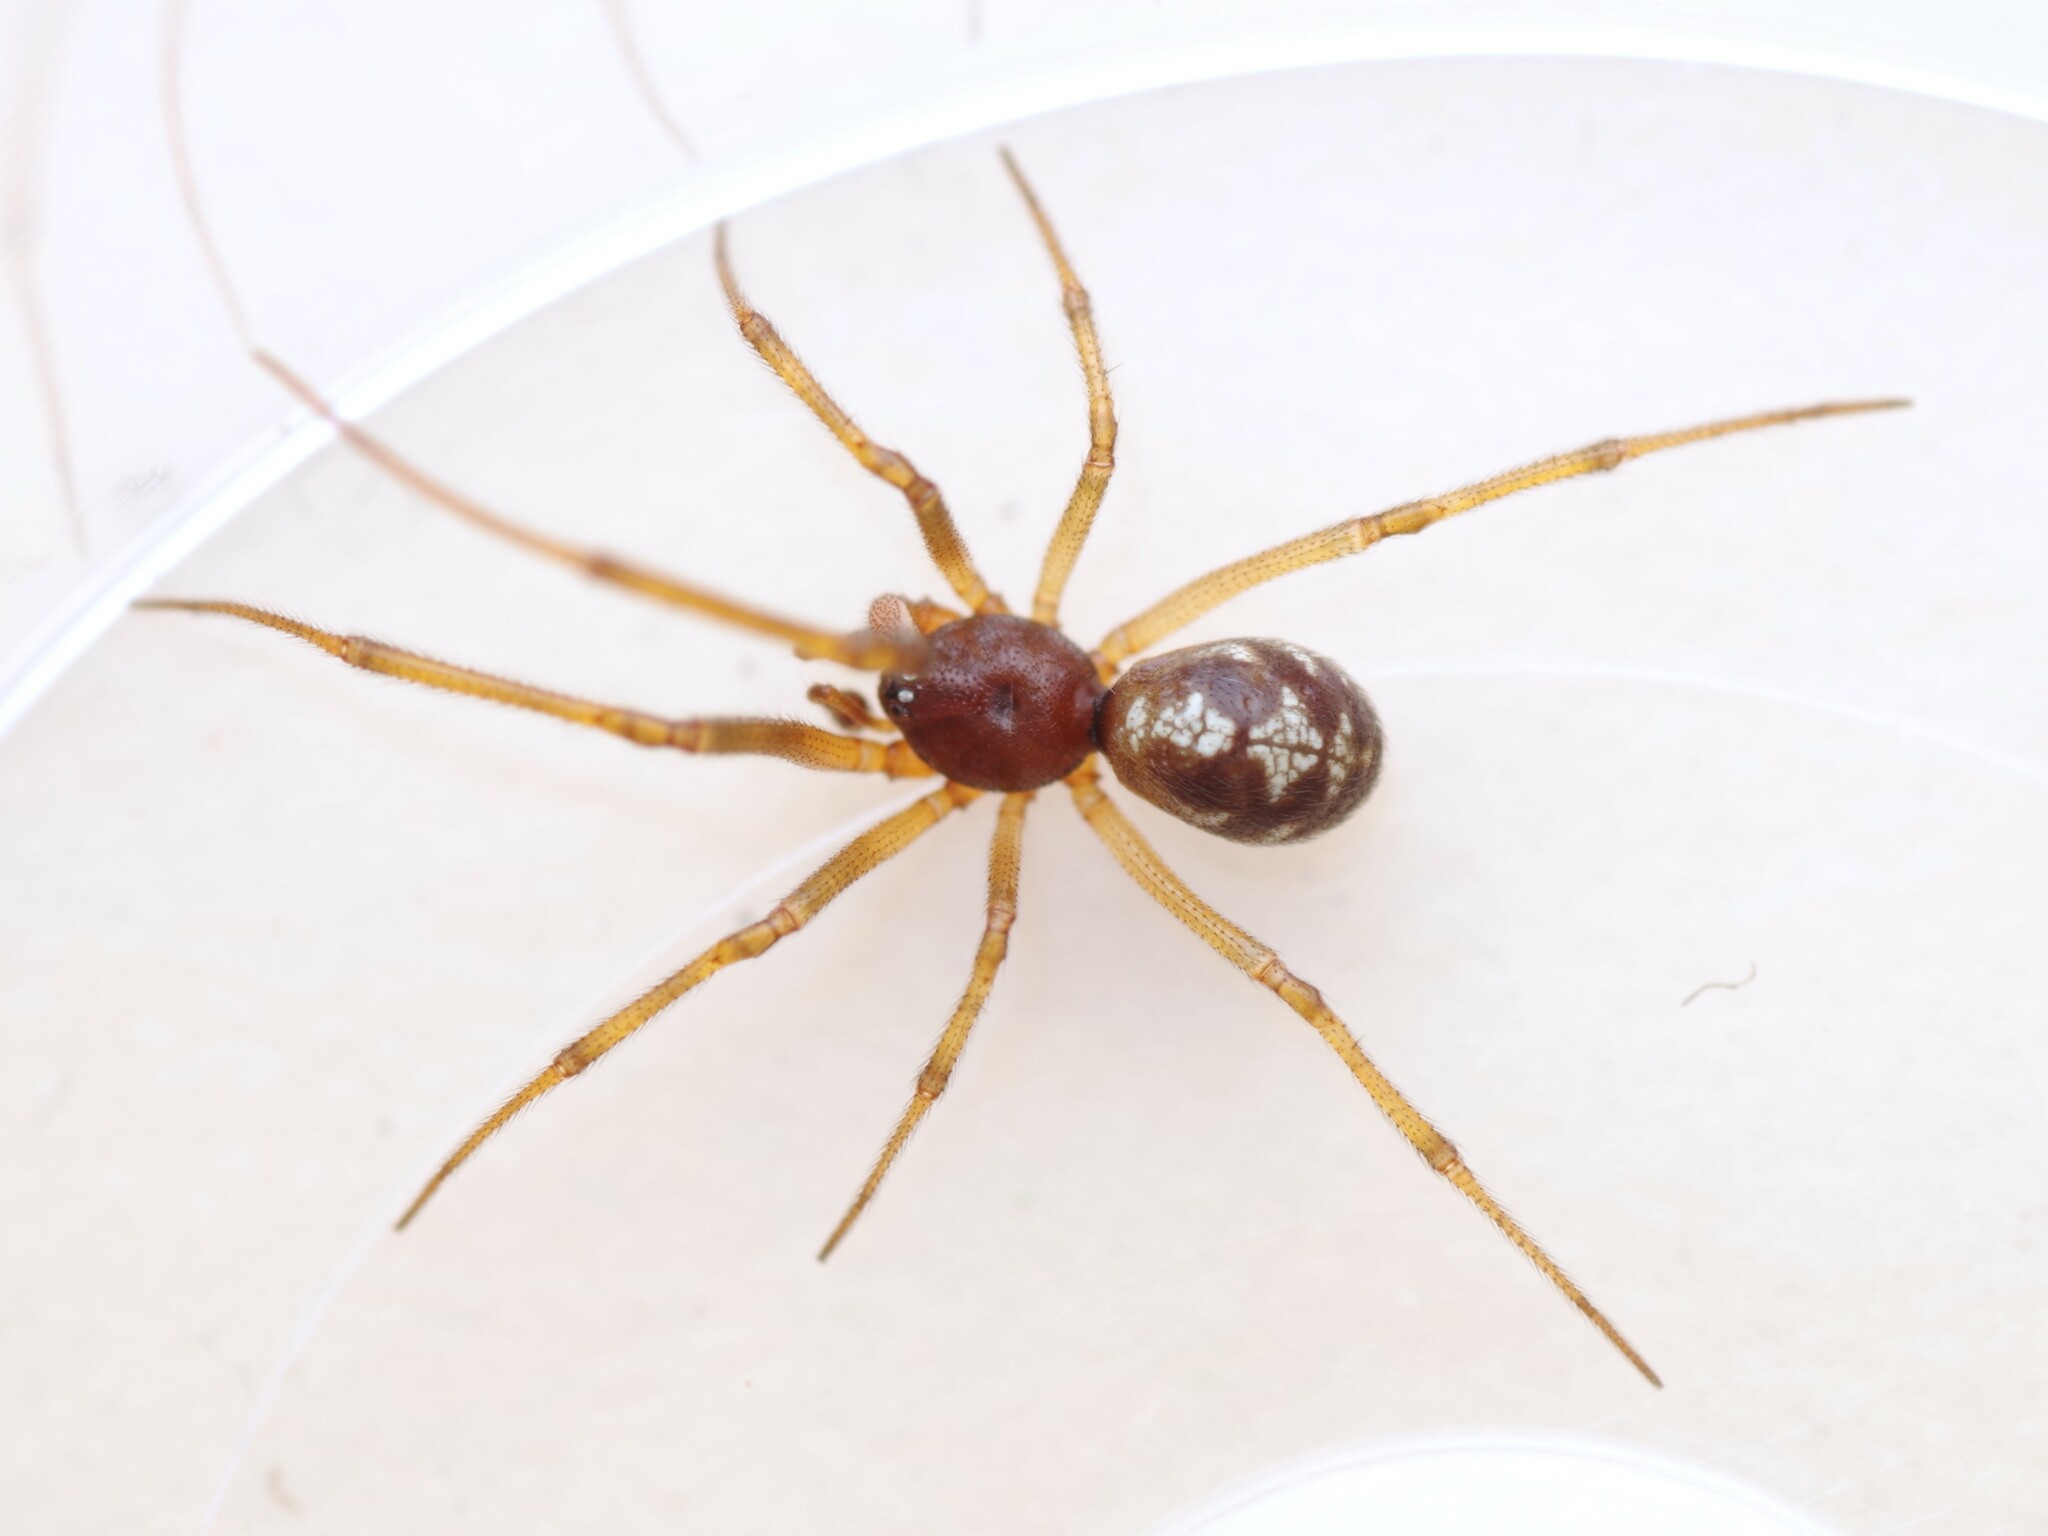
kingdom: Animalia
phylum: Arthropoda
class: Arachnida
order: Araneae
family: Theridiidae
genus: Steatoda
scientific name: Steatoda triangulosa
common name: Triangulate bud spider
